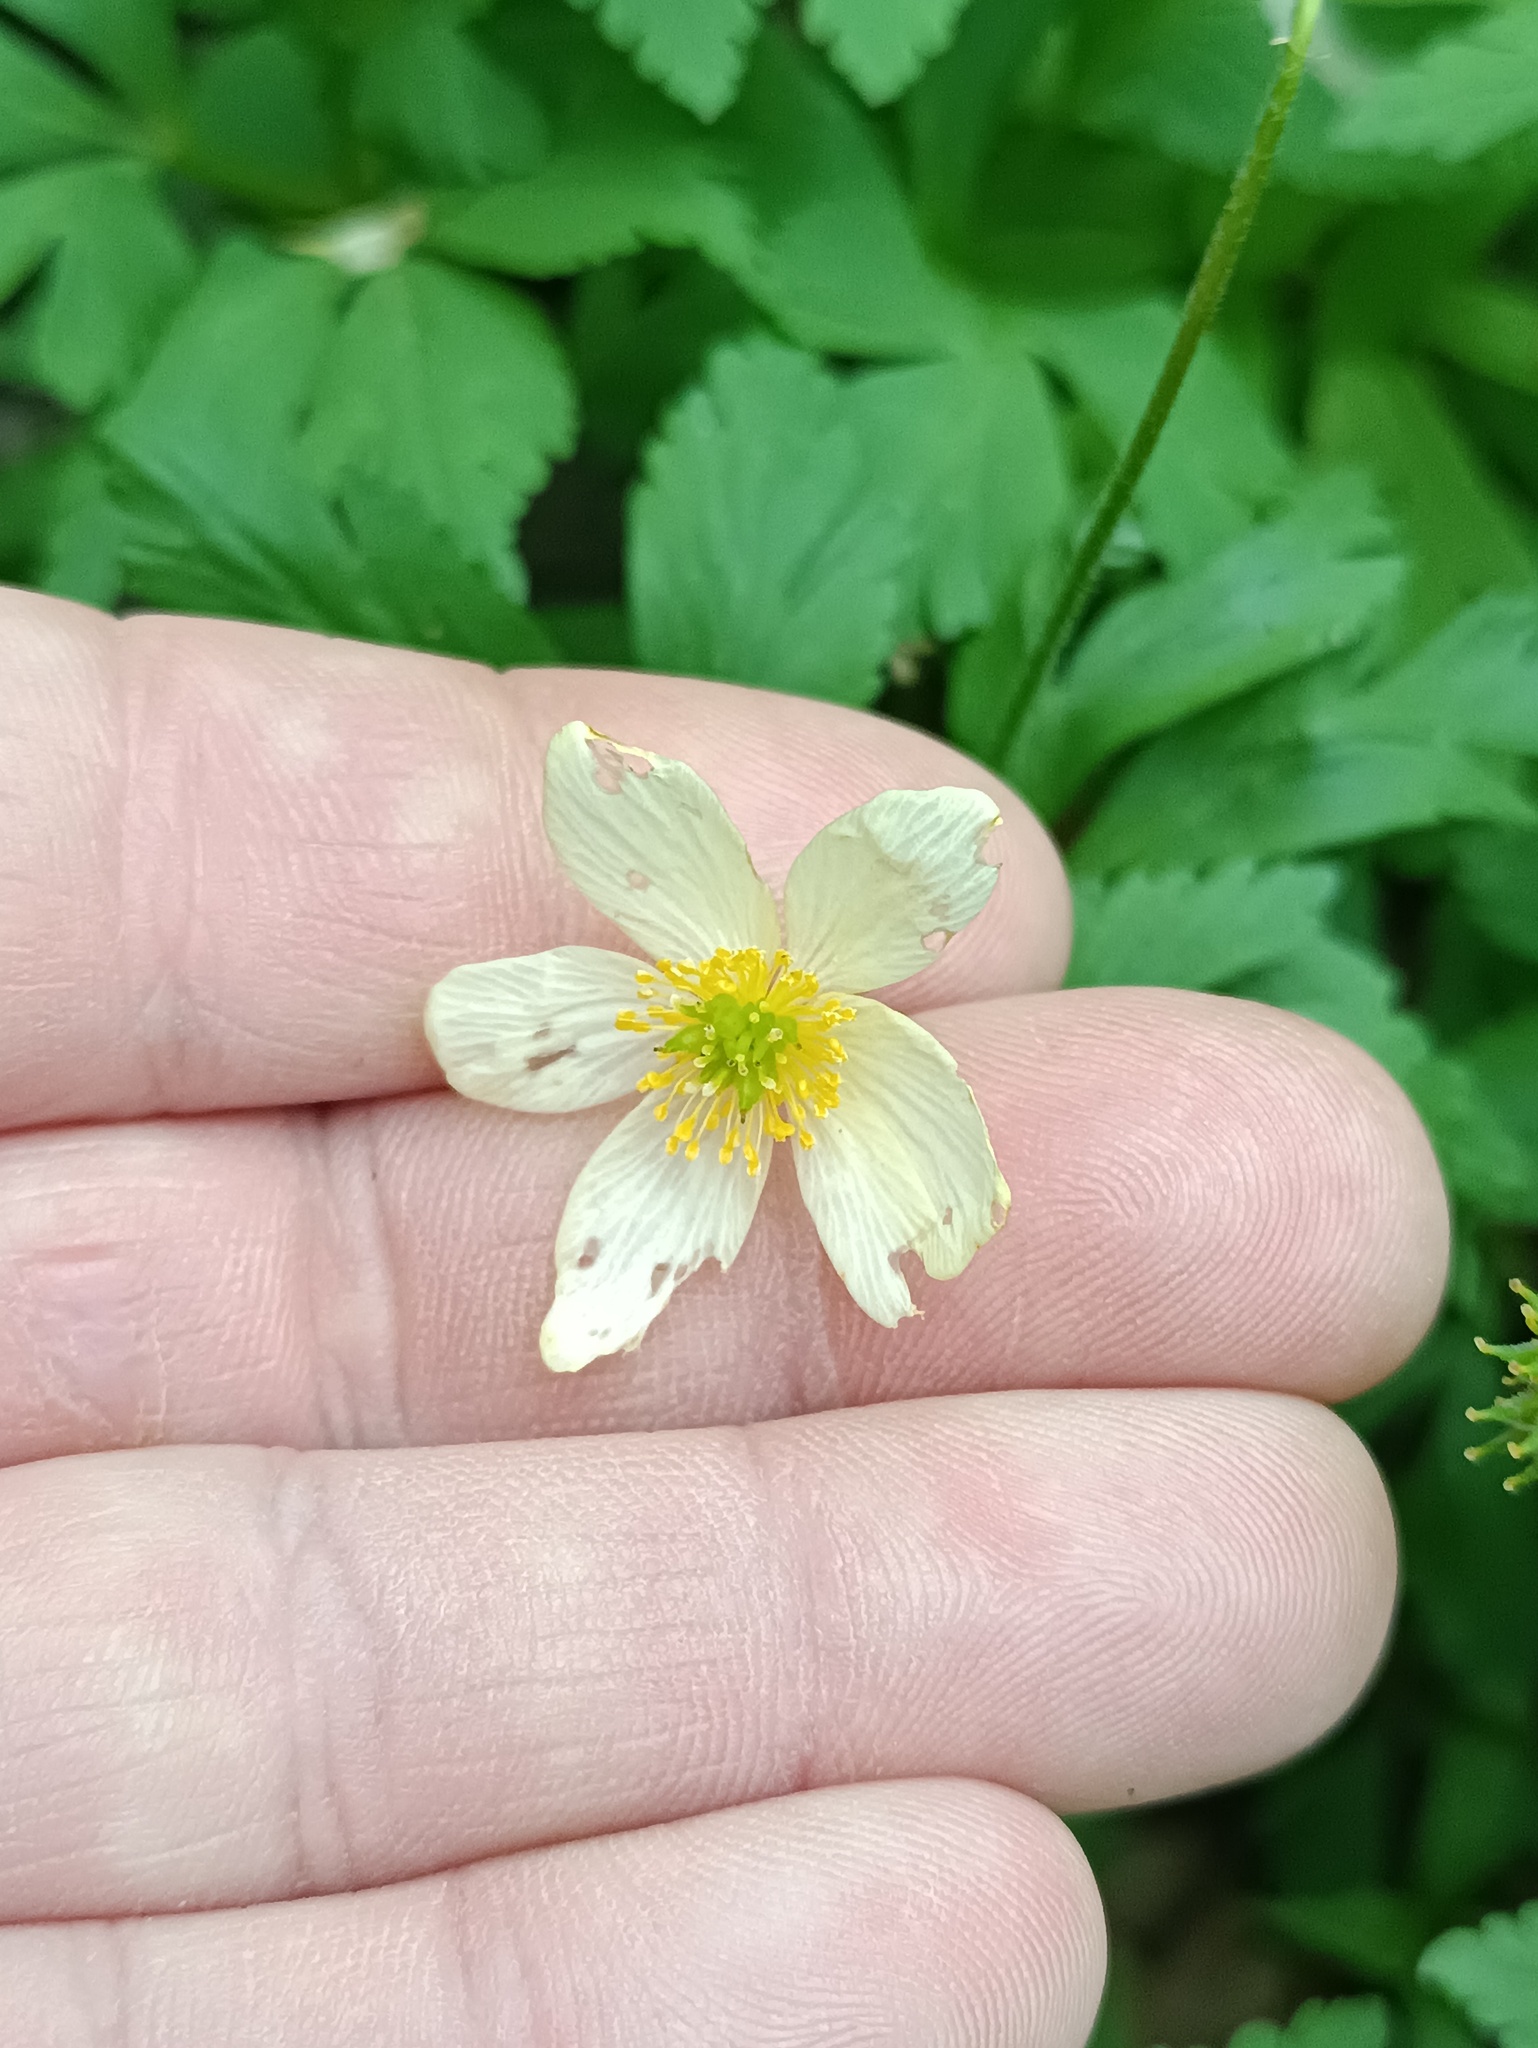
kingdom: Plantae
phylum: Tracheophyta
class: Magnoliopsida
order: Ranunculales
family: Ranunculaceae
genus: Anemone
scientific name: Anemone altaica
